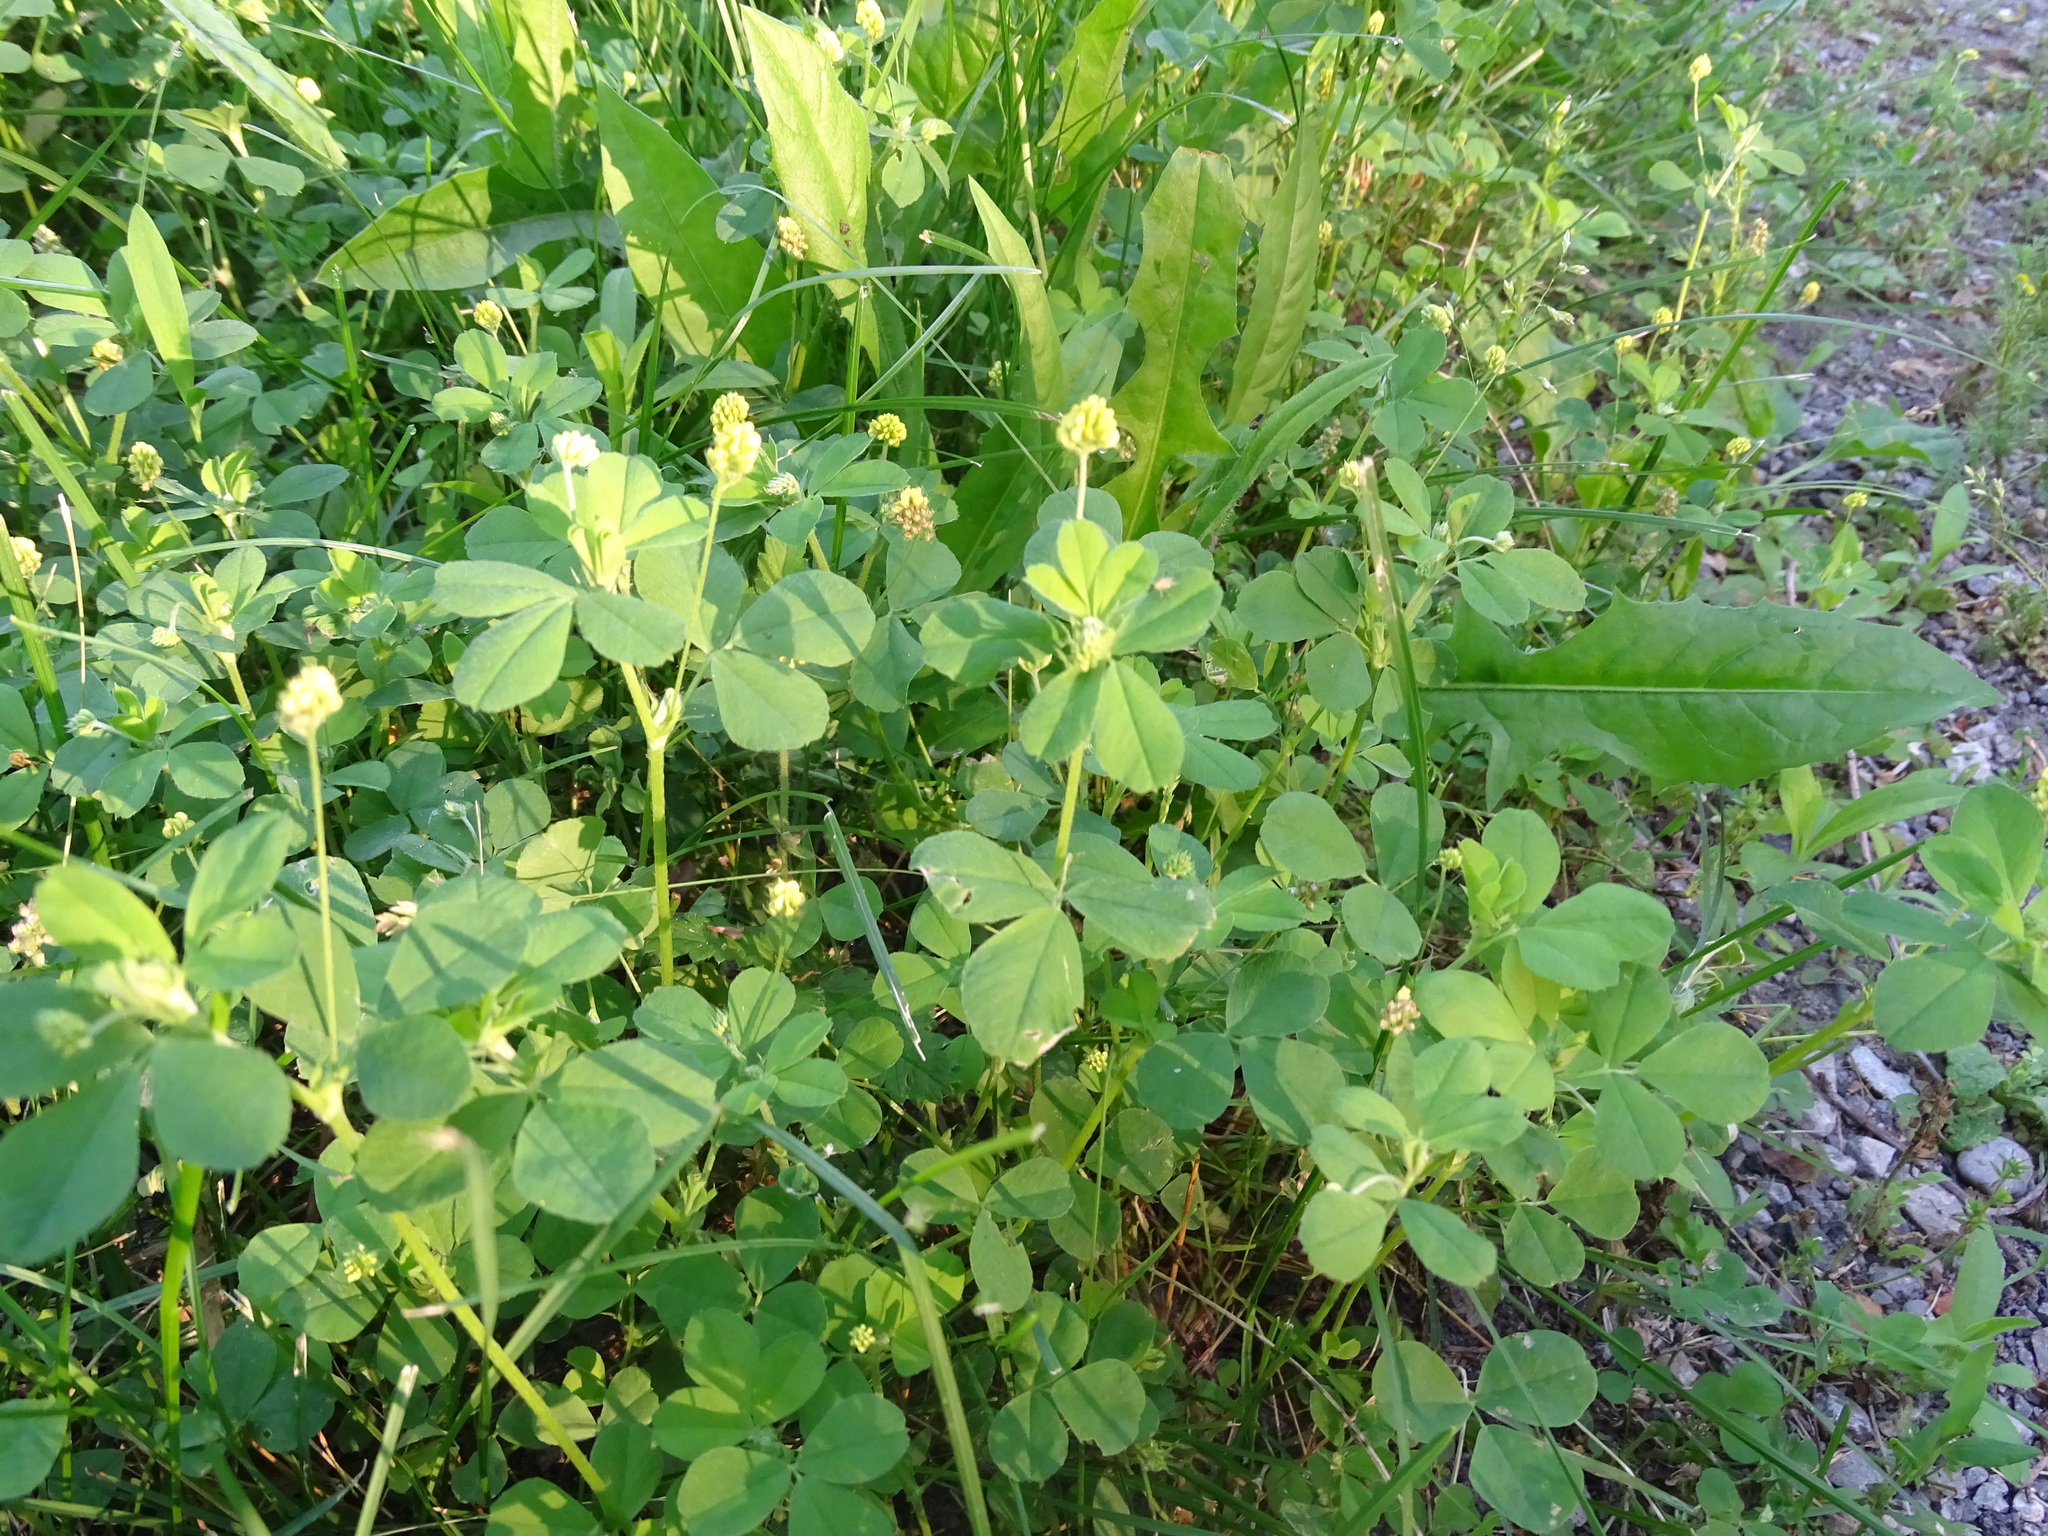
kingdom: Plantae
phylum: Tracheophyta
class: Magnoliopsida
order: Fabales
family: Fabaceae
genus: Medicago
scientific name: Medicago lupulina
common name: Black medick
